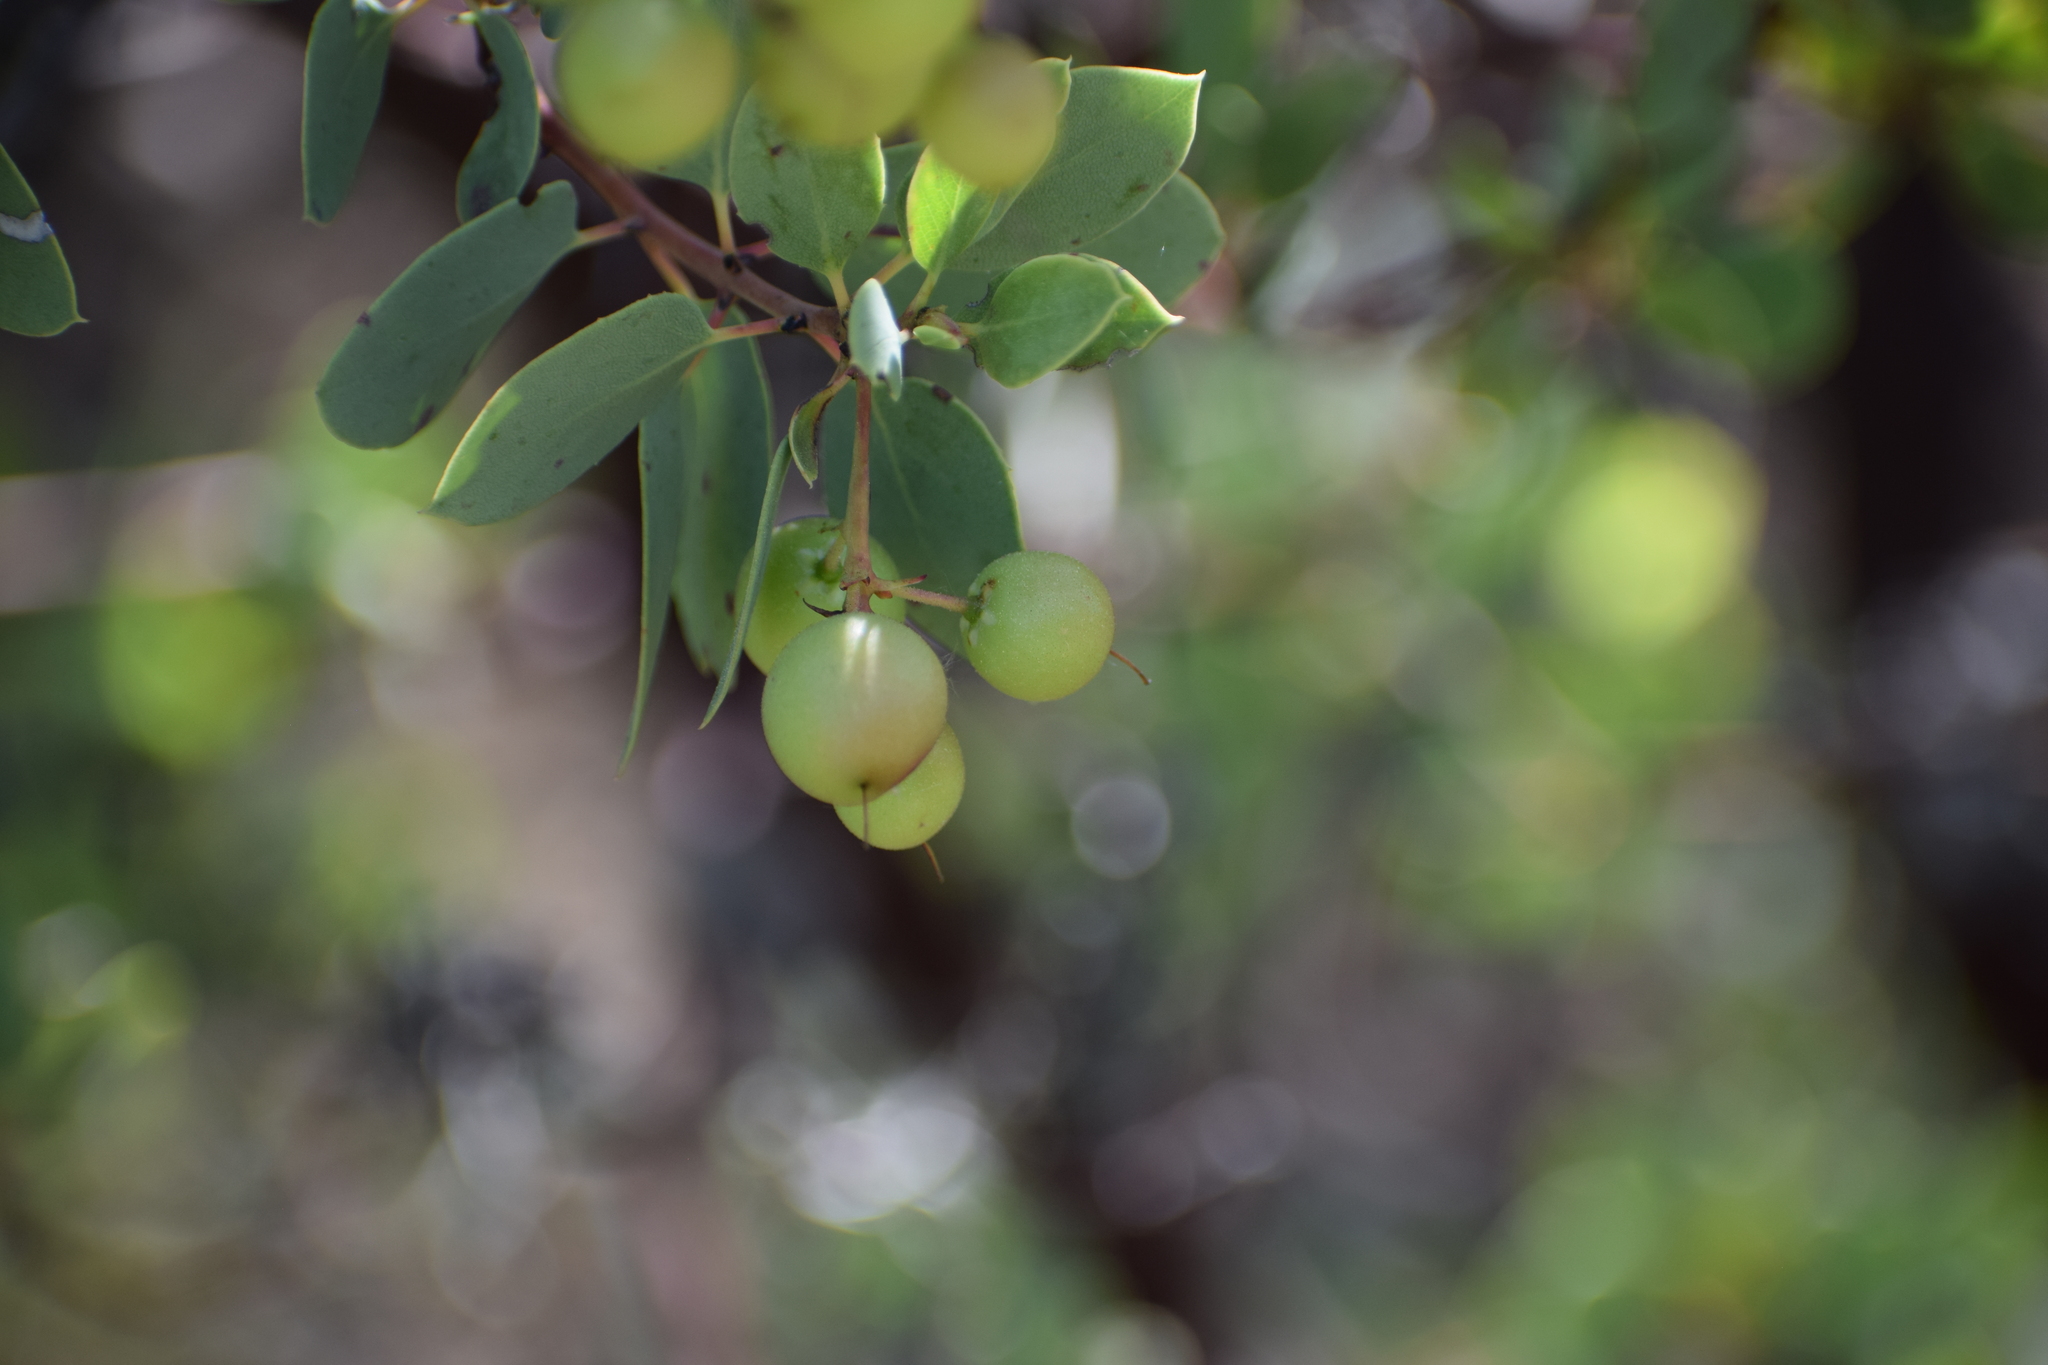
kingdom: Plantae
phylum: Tracheophyta
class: Magnoliopsida
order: Ericales
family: Ericaceae
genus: Arctostaphylos
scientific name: Arctostaphylos glauca
